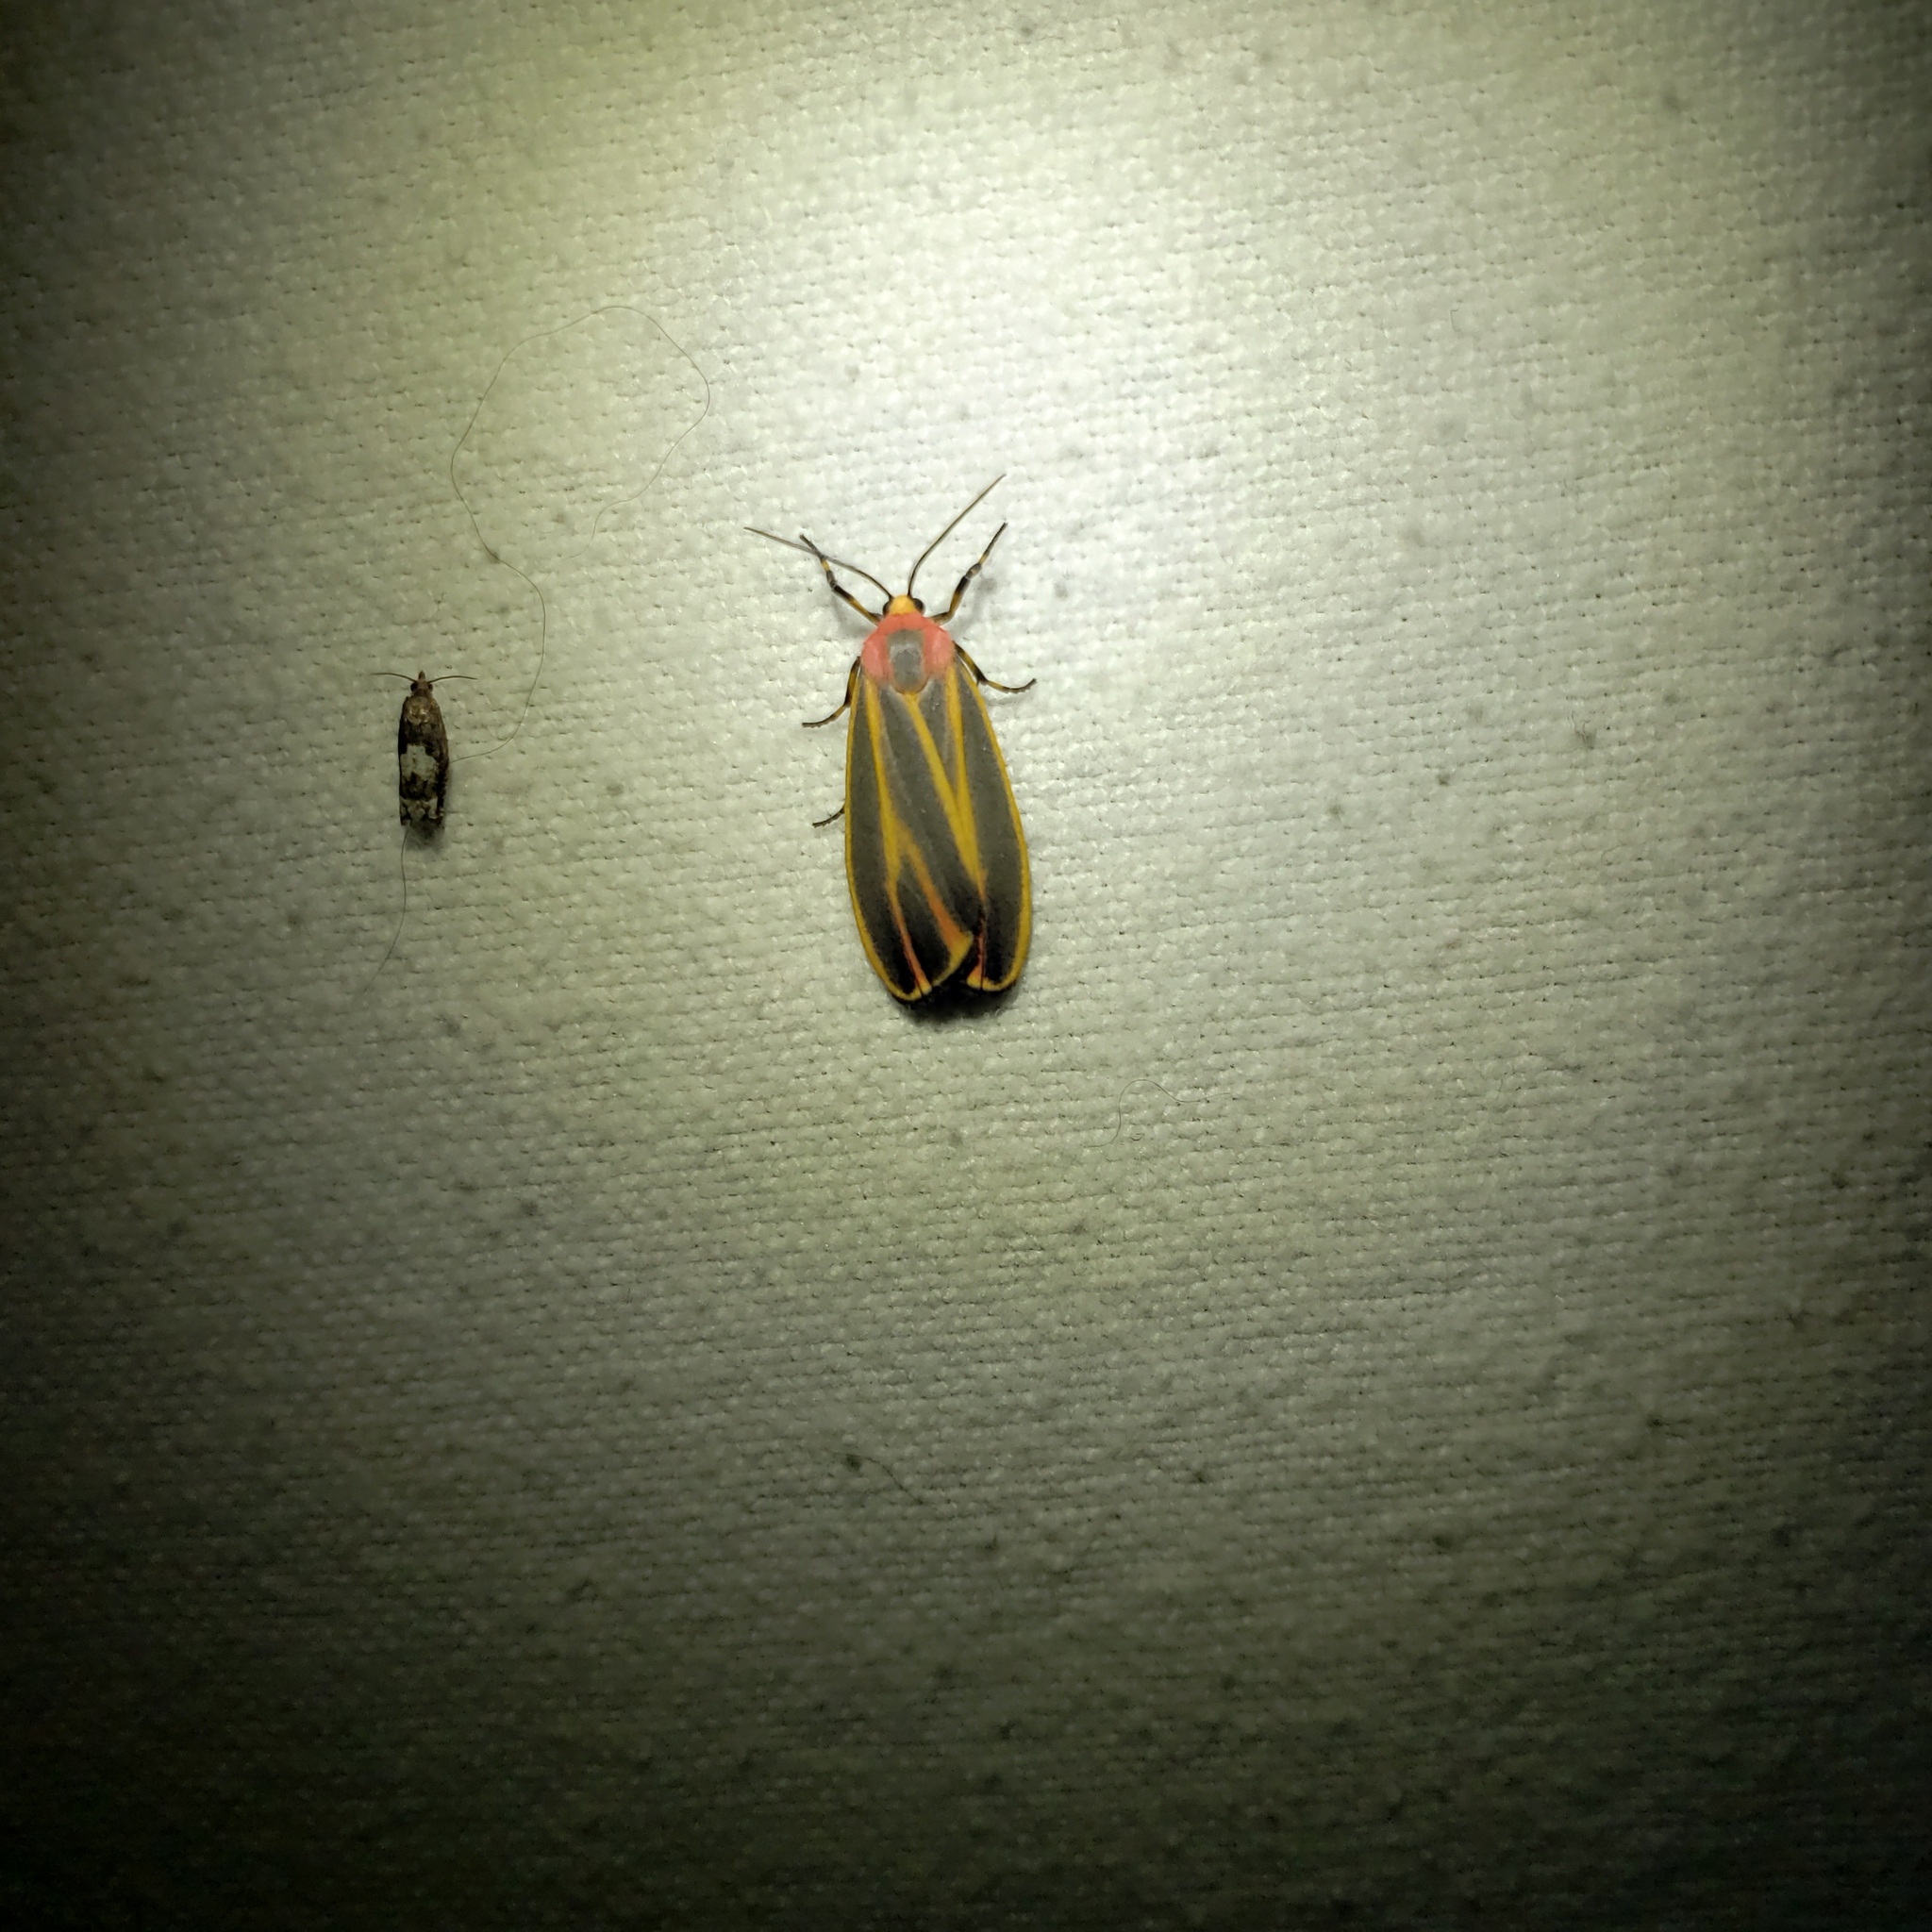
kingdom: Animalia
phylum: Arthropoda
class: Insecta
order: Lepidoptera
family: Erebidae
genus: Hypoprepia
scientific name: Hypoprepia fucosa
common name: Painted lichen moth
